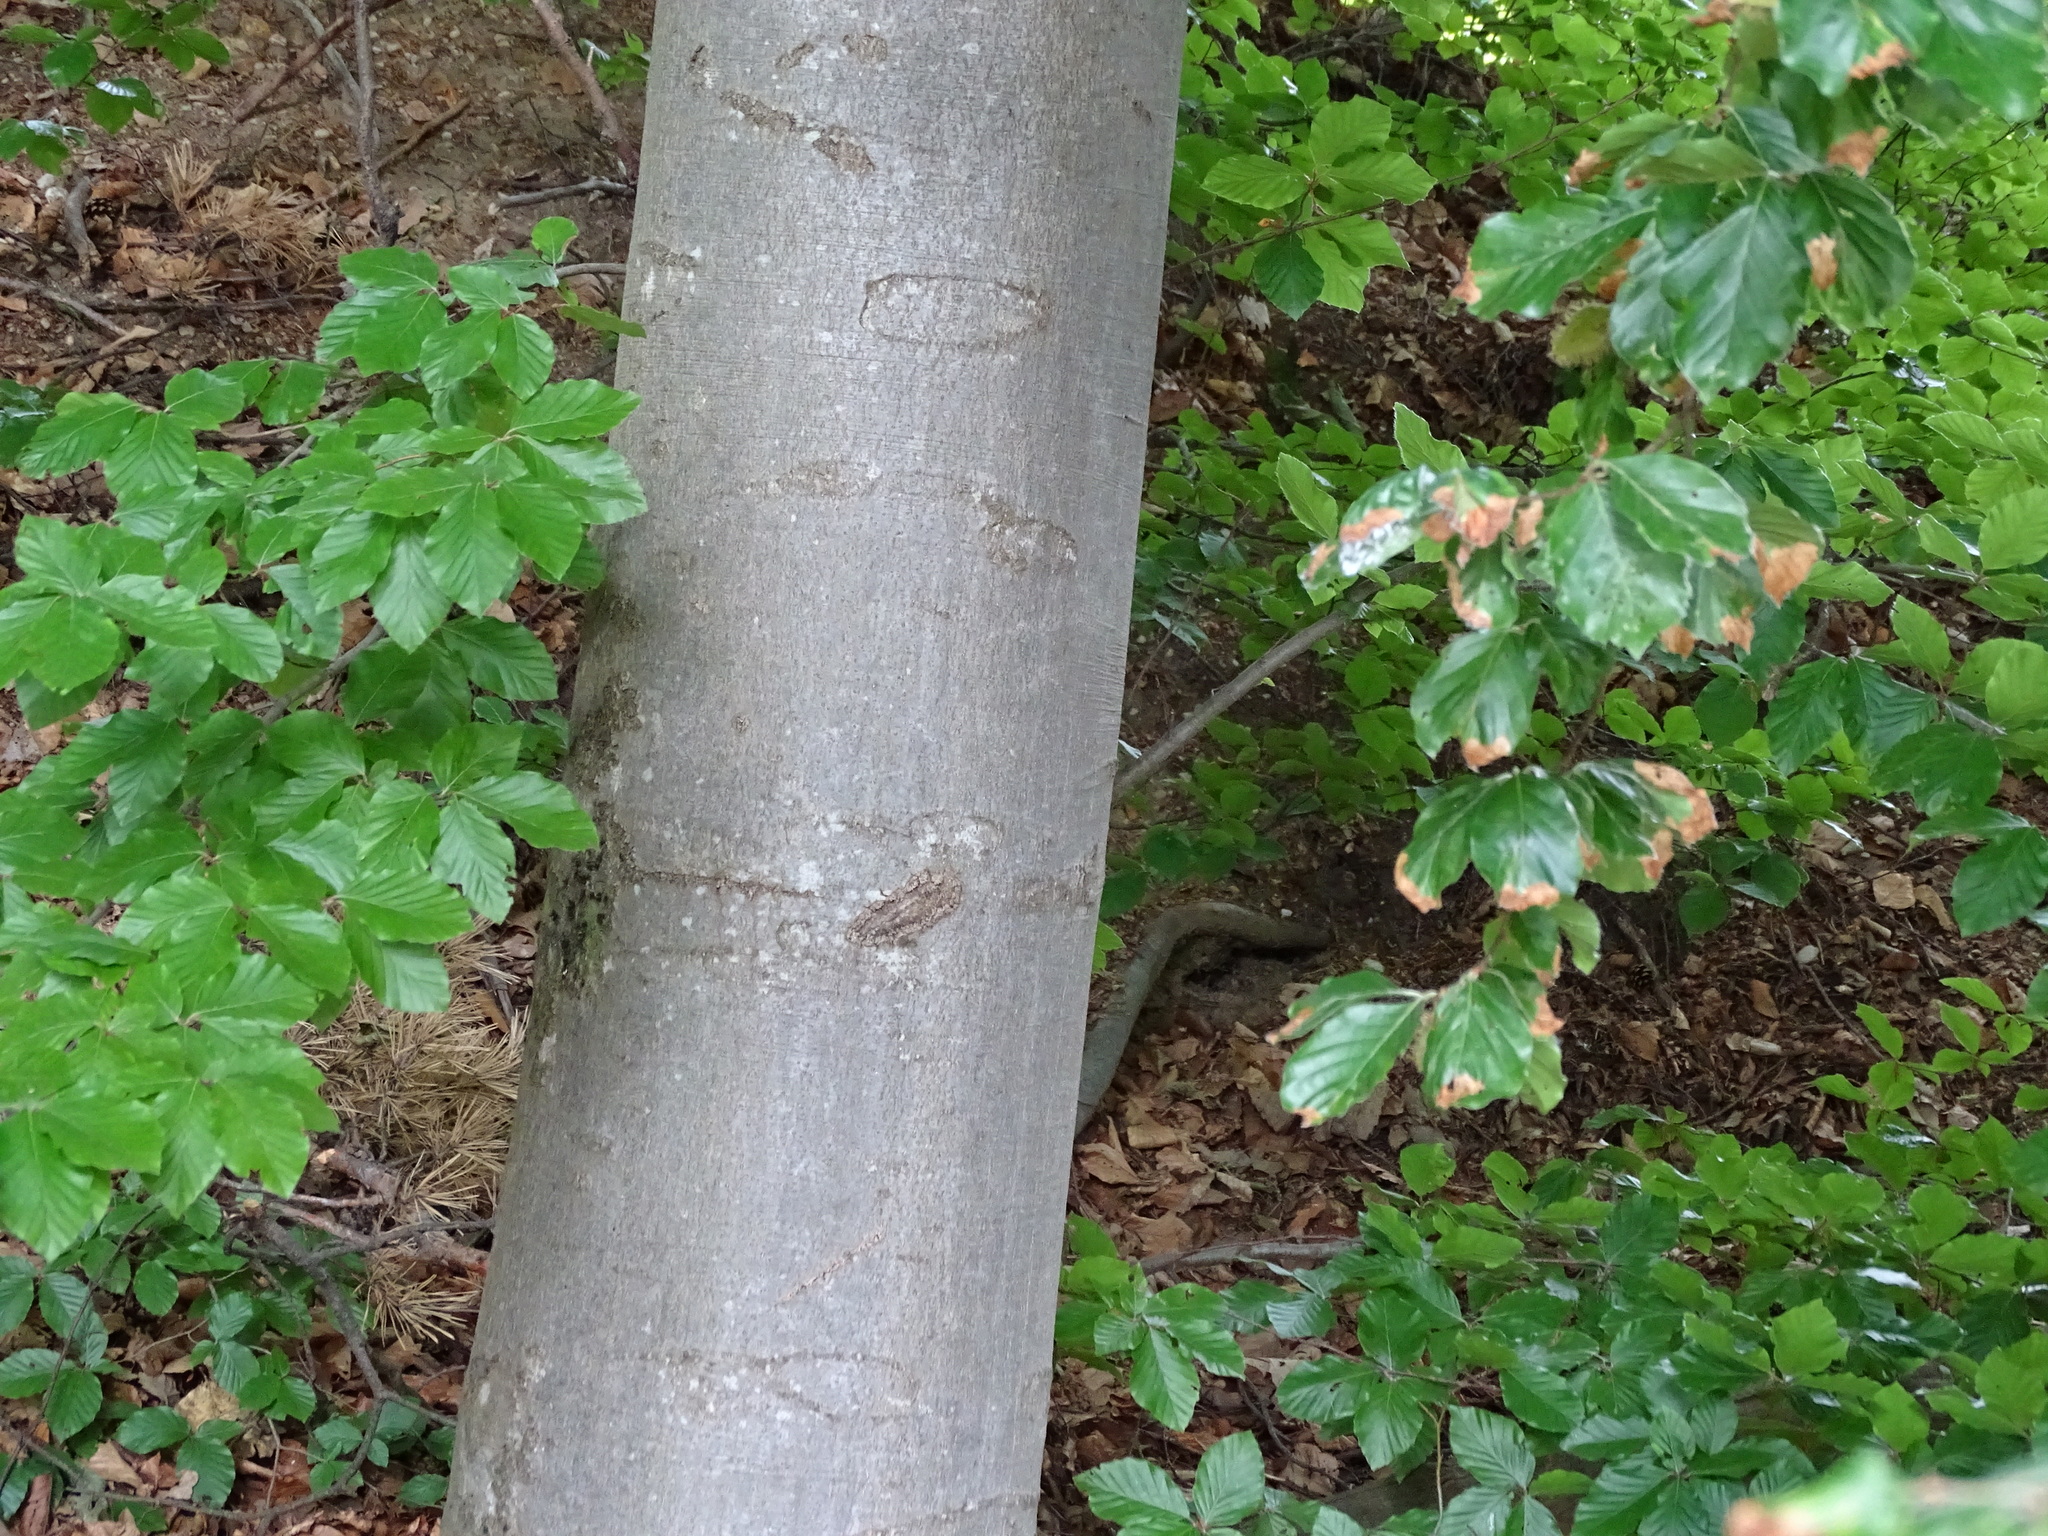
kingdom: Plantae
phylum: Tracheophyta
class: Magnoliopsida
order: Fagales
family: Fagaceae
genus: Fagus
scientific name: Fagus sylvatica
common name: Beech
